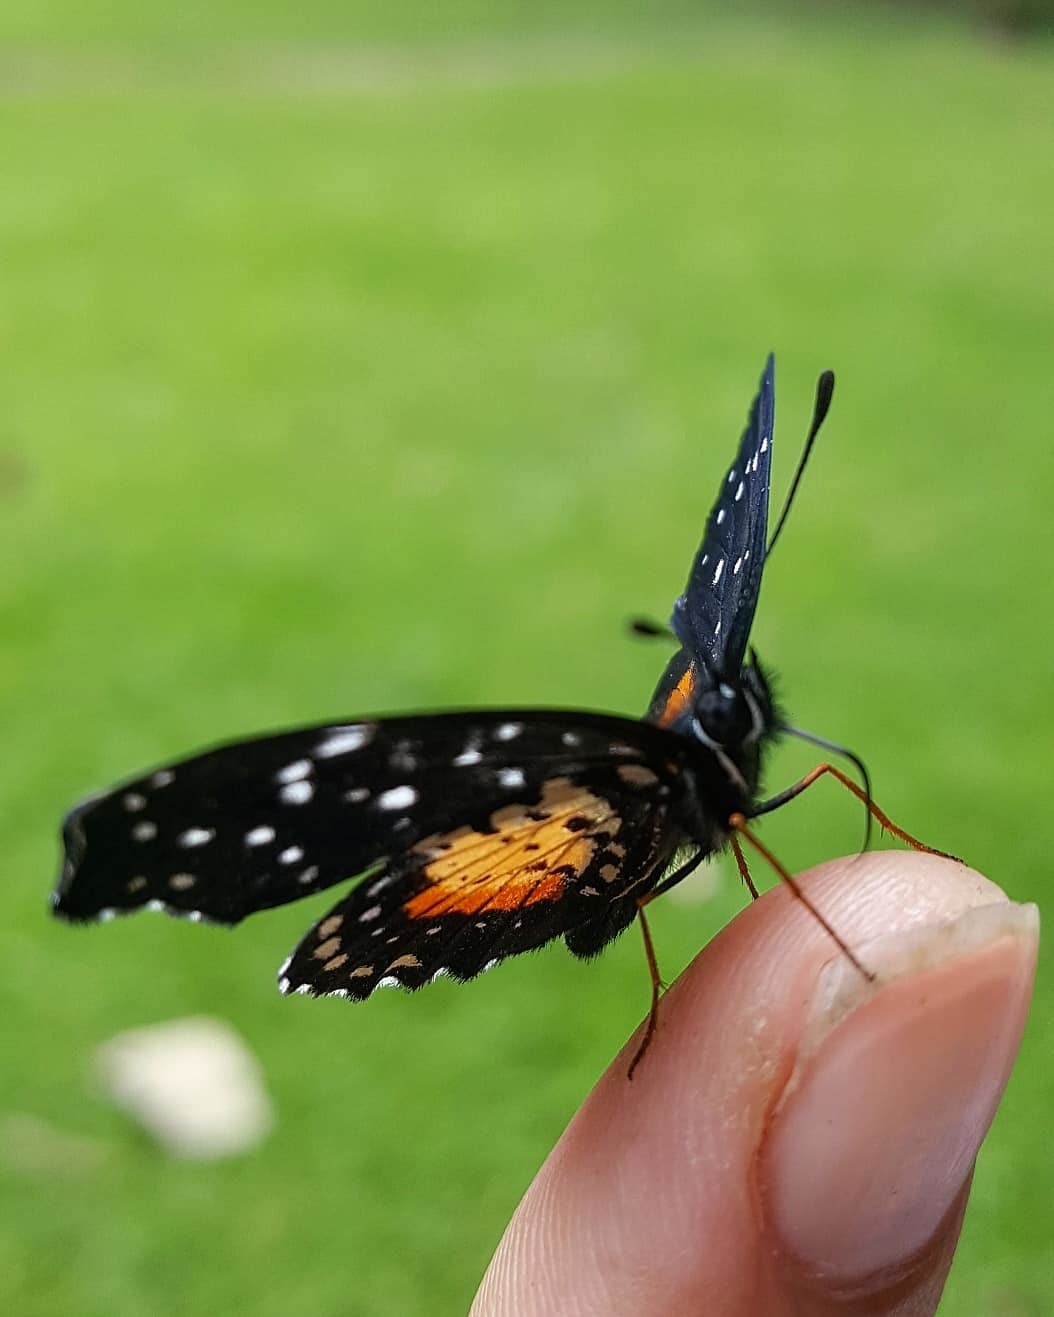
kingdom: Animalia
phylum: Arthropoda
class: Insecta
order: Lepidoptera
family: Nymphalidae
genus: Chlosyne
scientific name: Chlosyne janais
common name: Crimson patch
